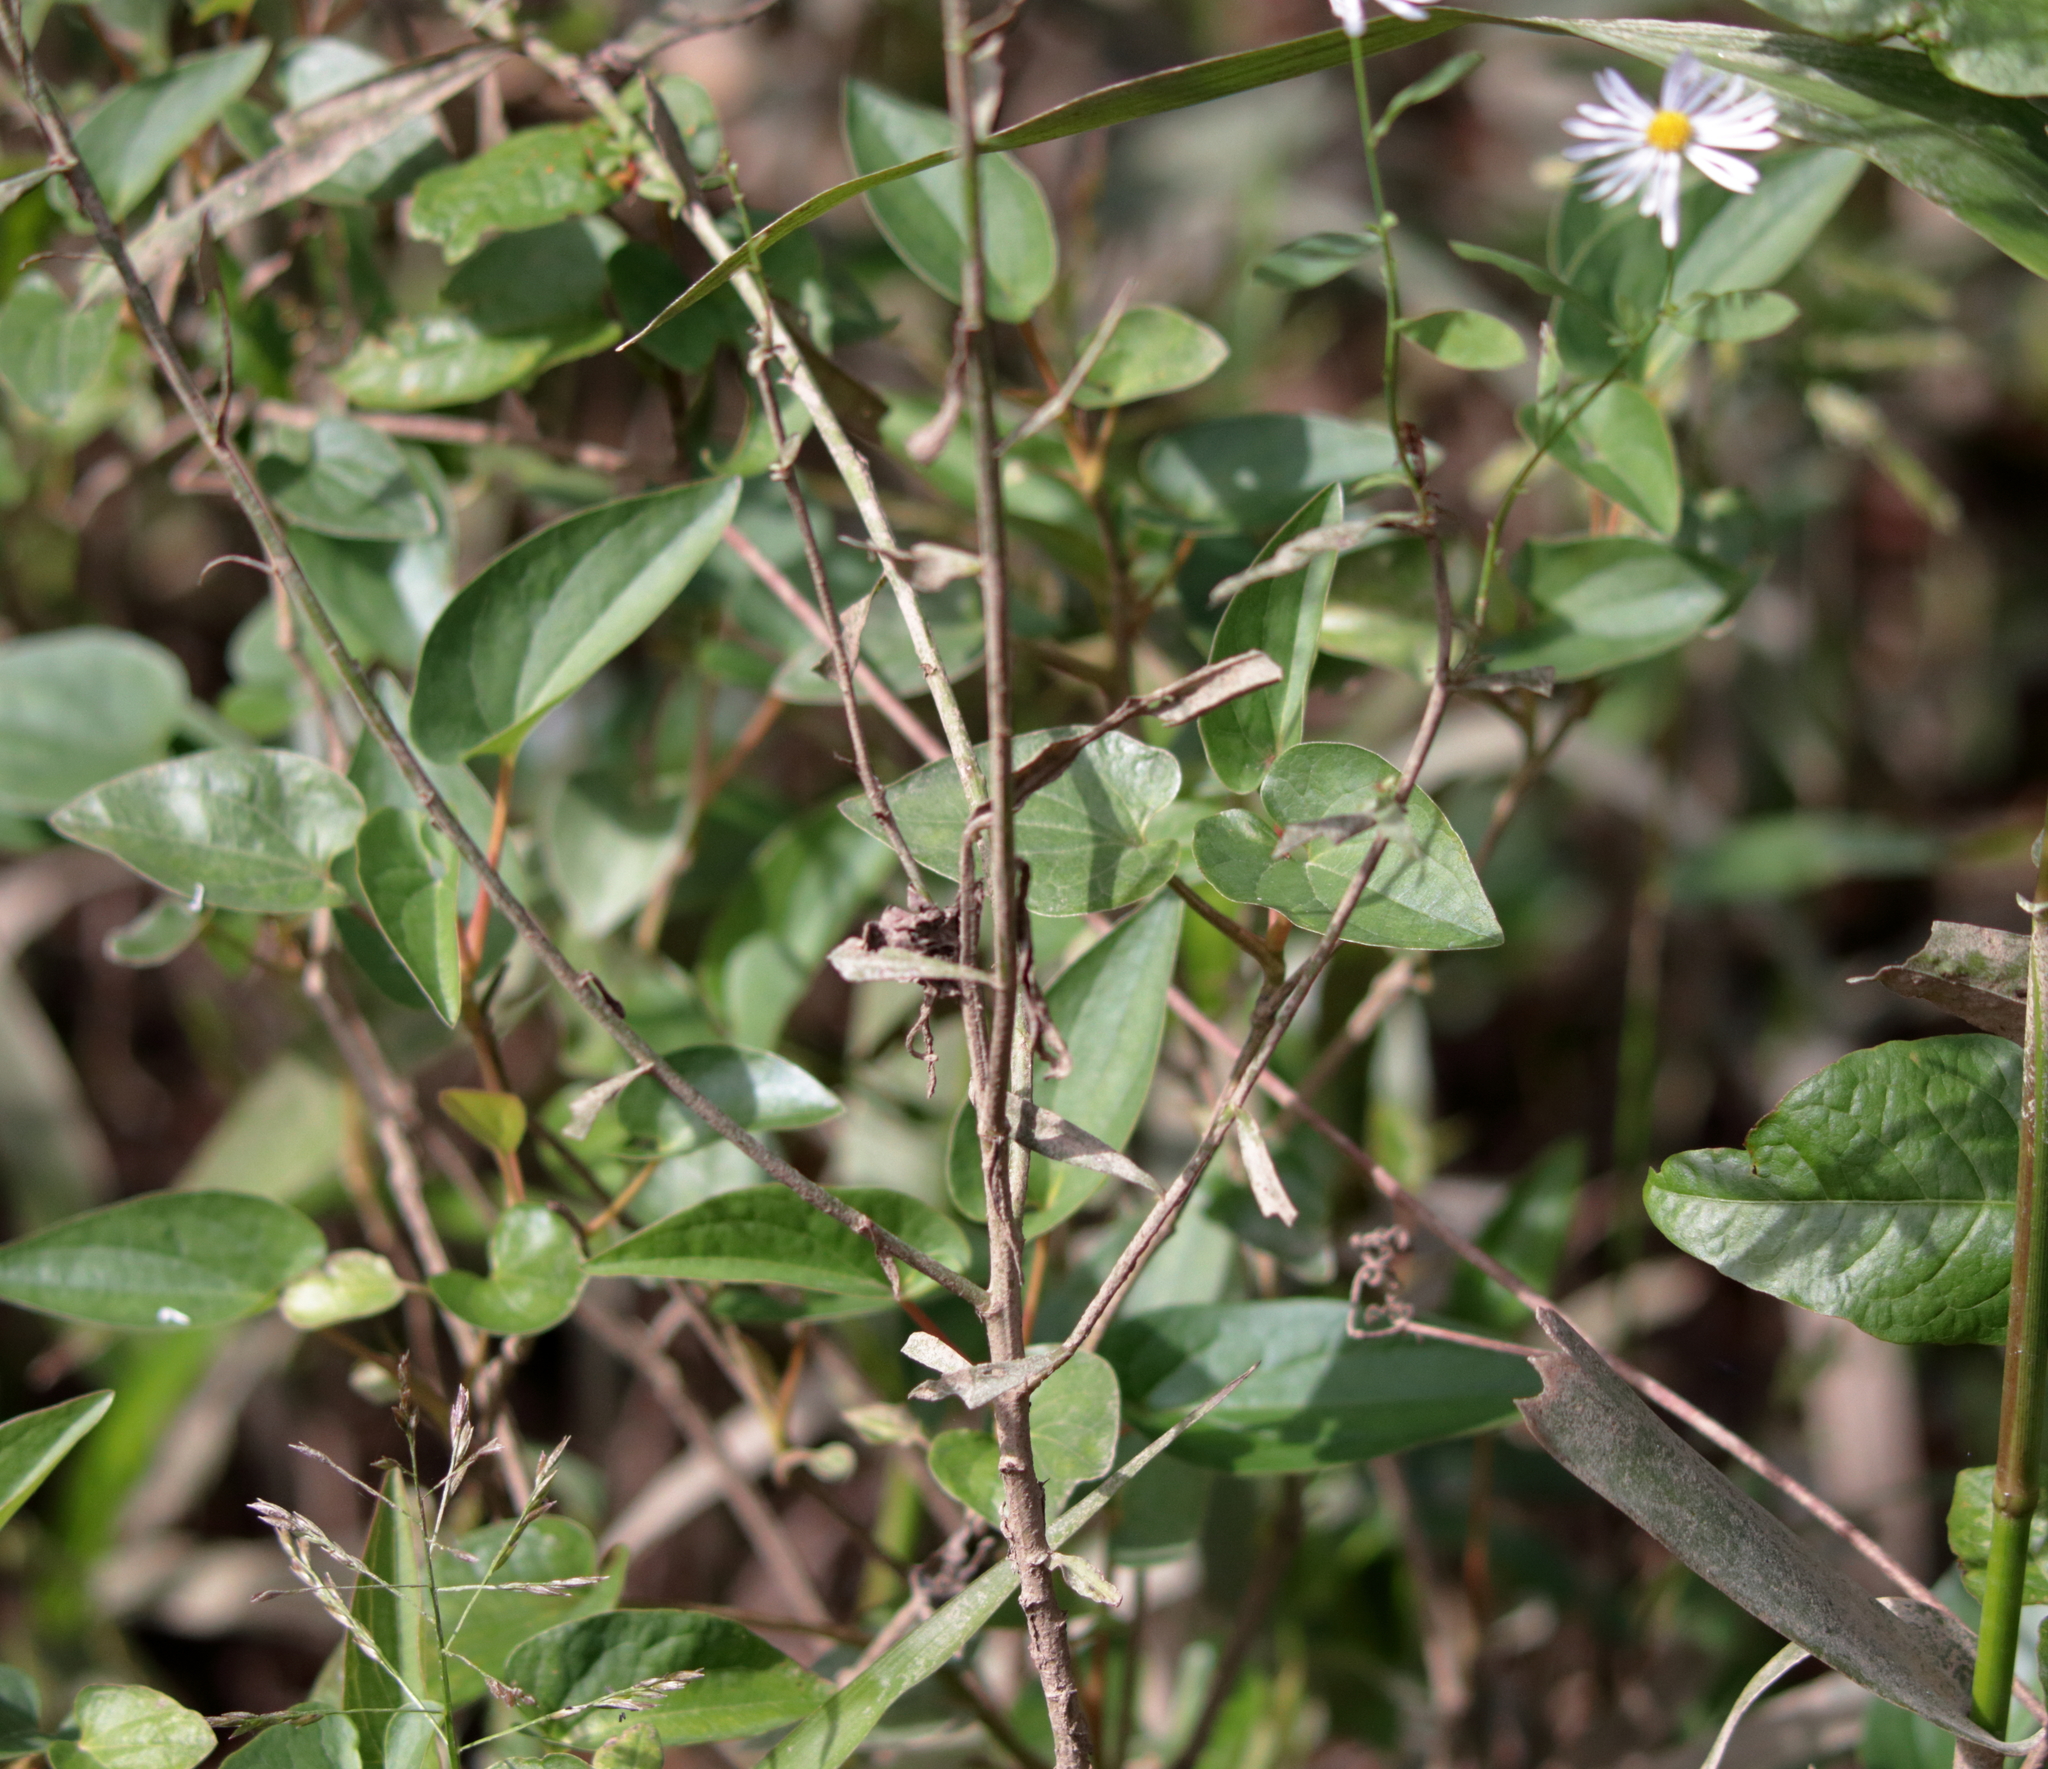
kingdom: Plantae
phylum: Tracheophyta
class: Magnoliopsida
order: Asterales
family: Asteraceae
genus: Boltonia
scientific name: Boltonia asteroides
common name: False chamomile
